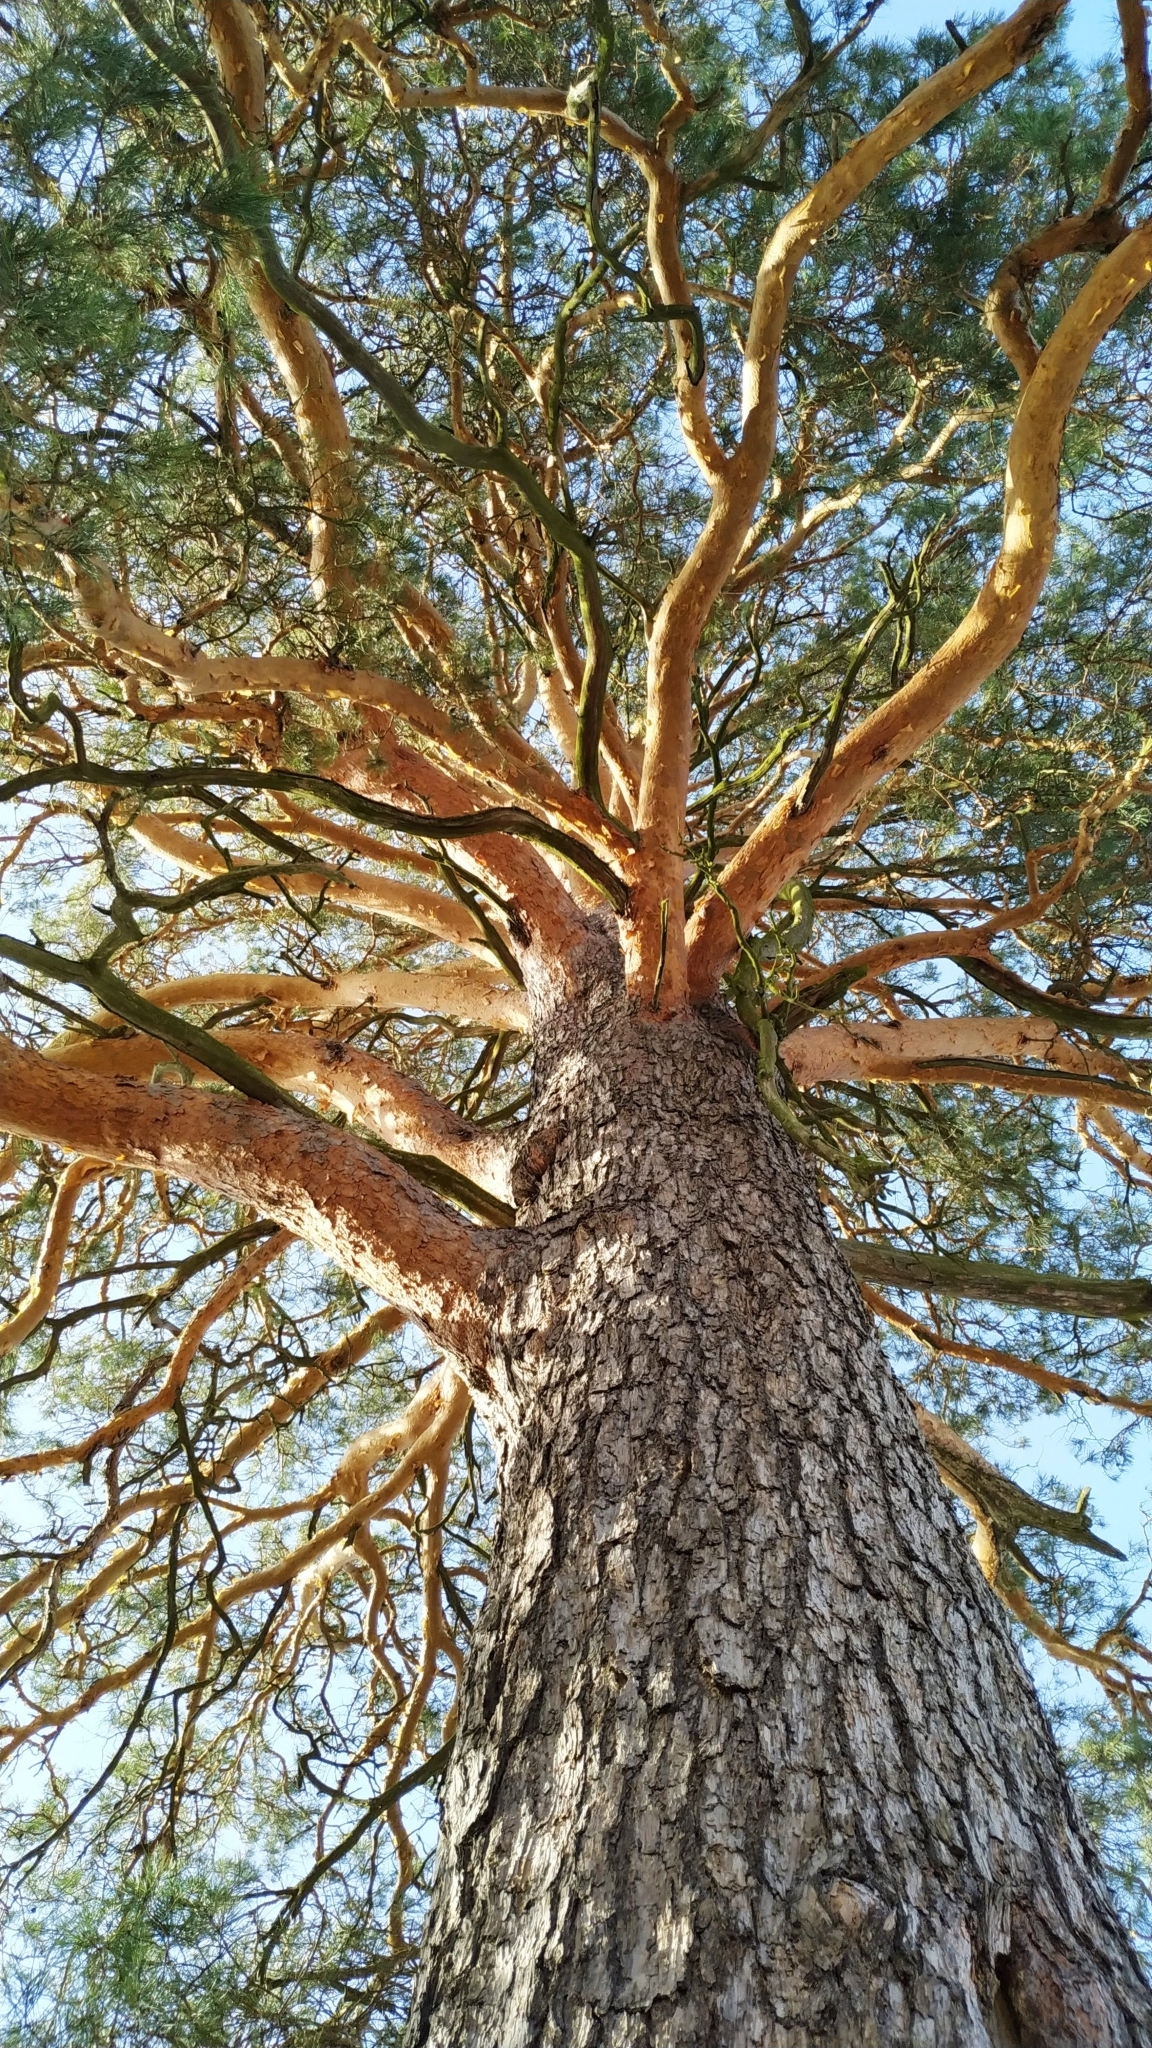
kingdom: Plantae
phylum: Tracheophyta
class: Pinopsida
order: Pinales
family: Pinaceae
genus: Pinus
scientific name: Pinus sylvestris
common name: Scots pine
